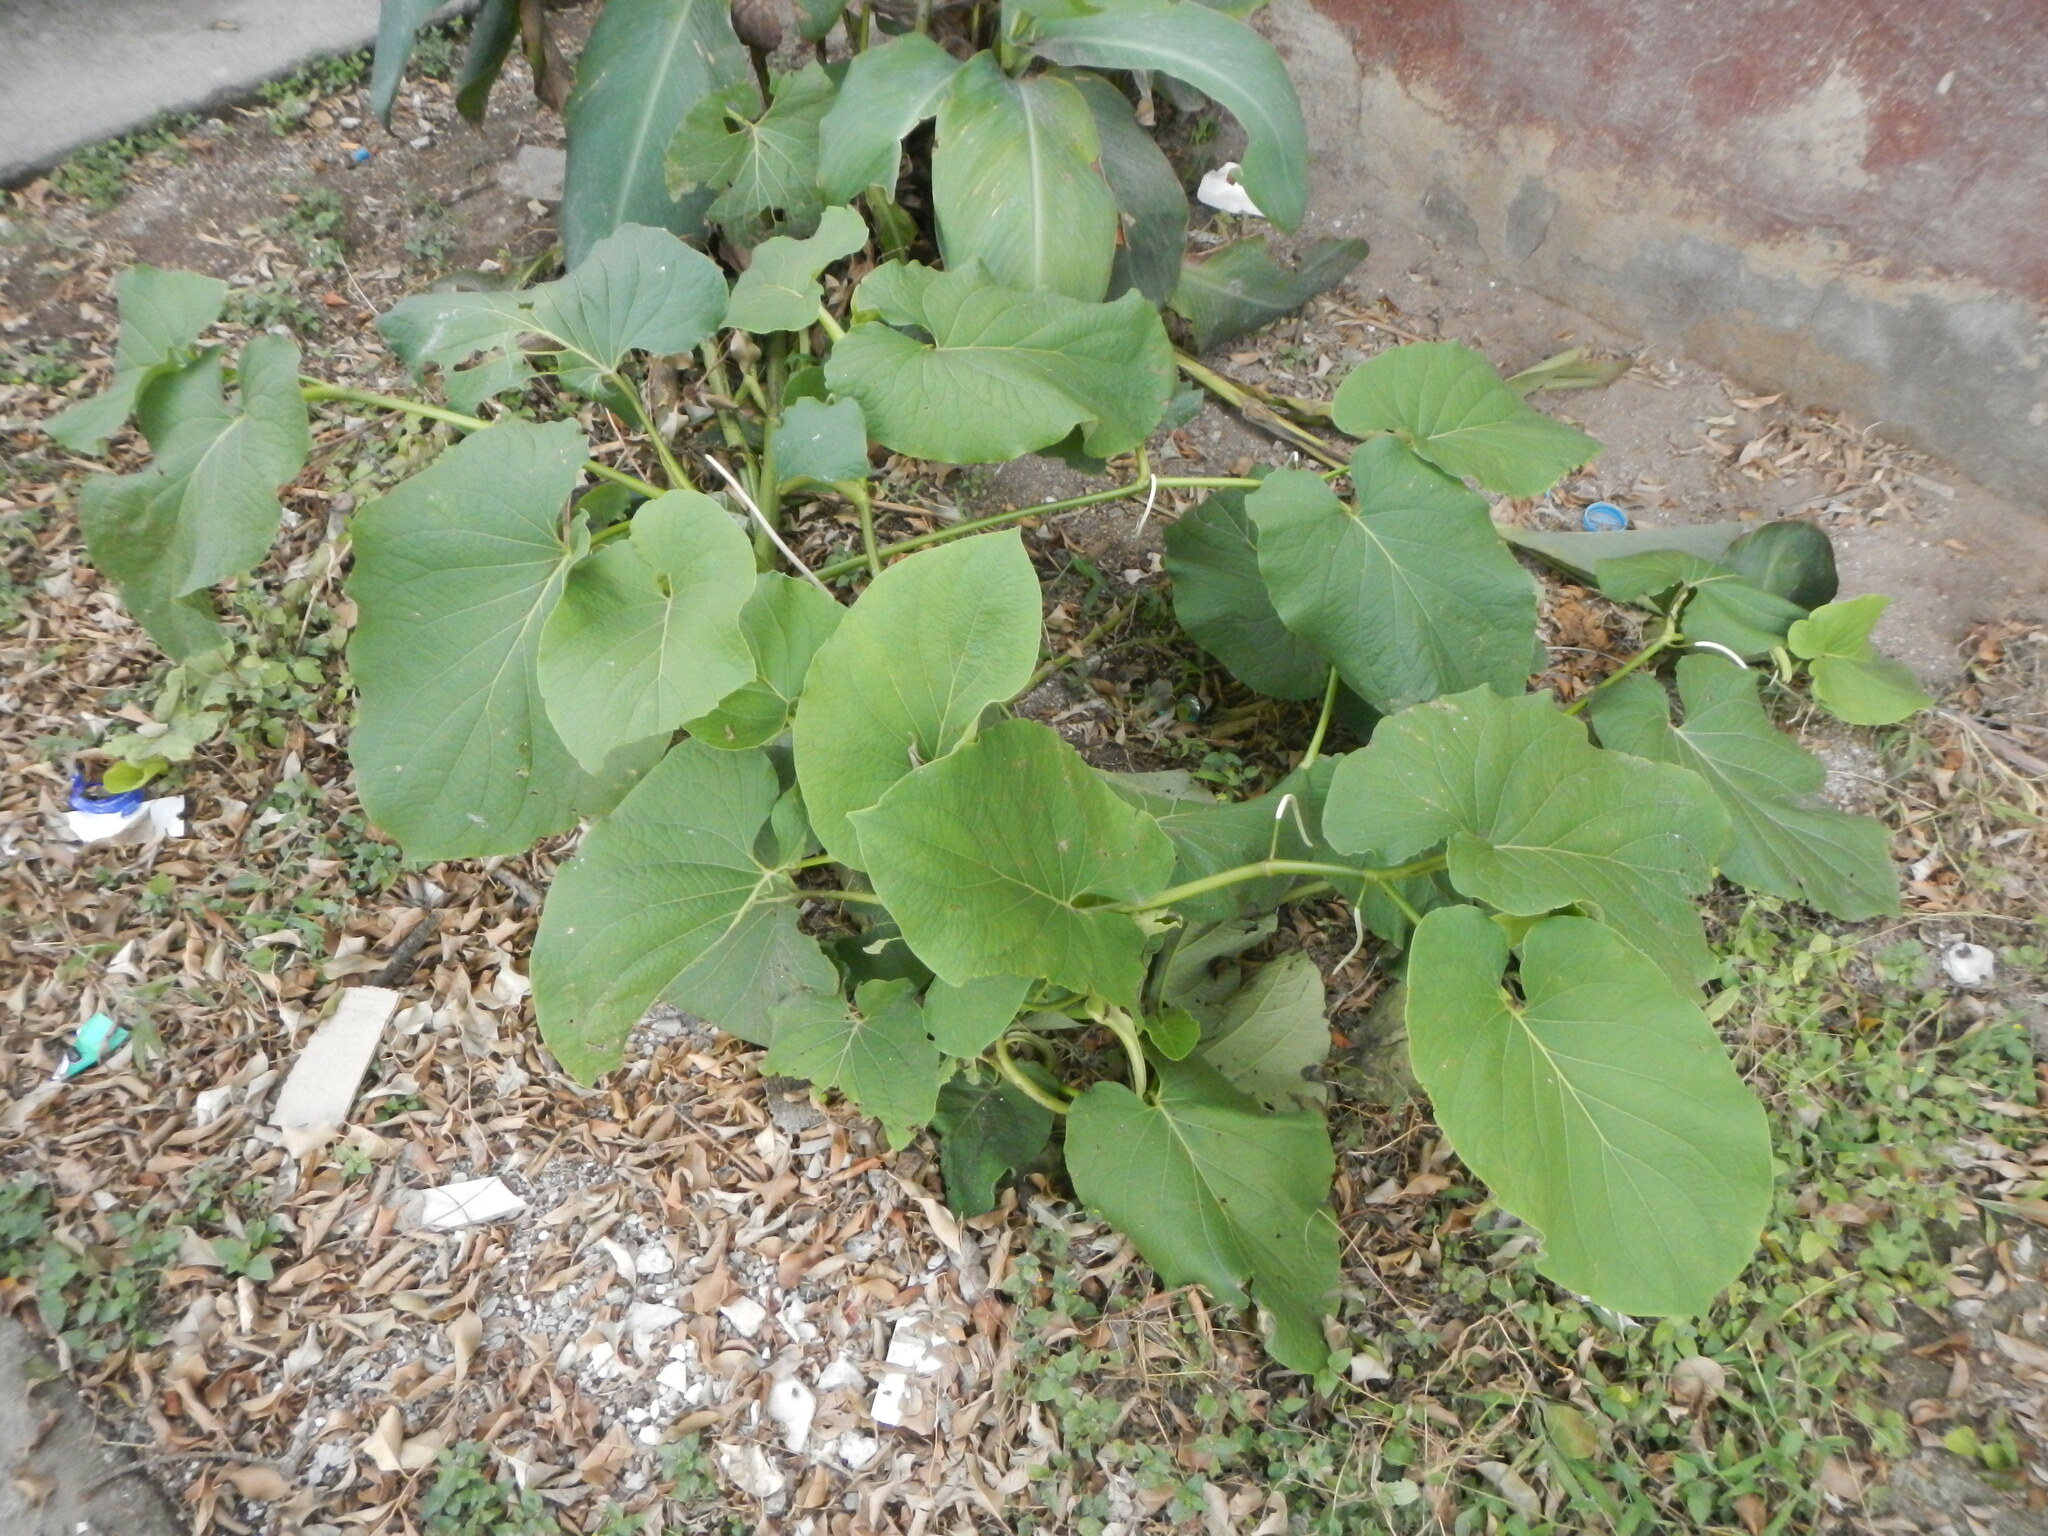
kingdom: Plantae
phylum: Tracheophyta
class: Magnoliopsida
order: Piperales
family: Piperaceae
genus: Piper
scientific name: Piper auritum
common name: Vera cruz pepper
